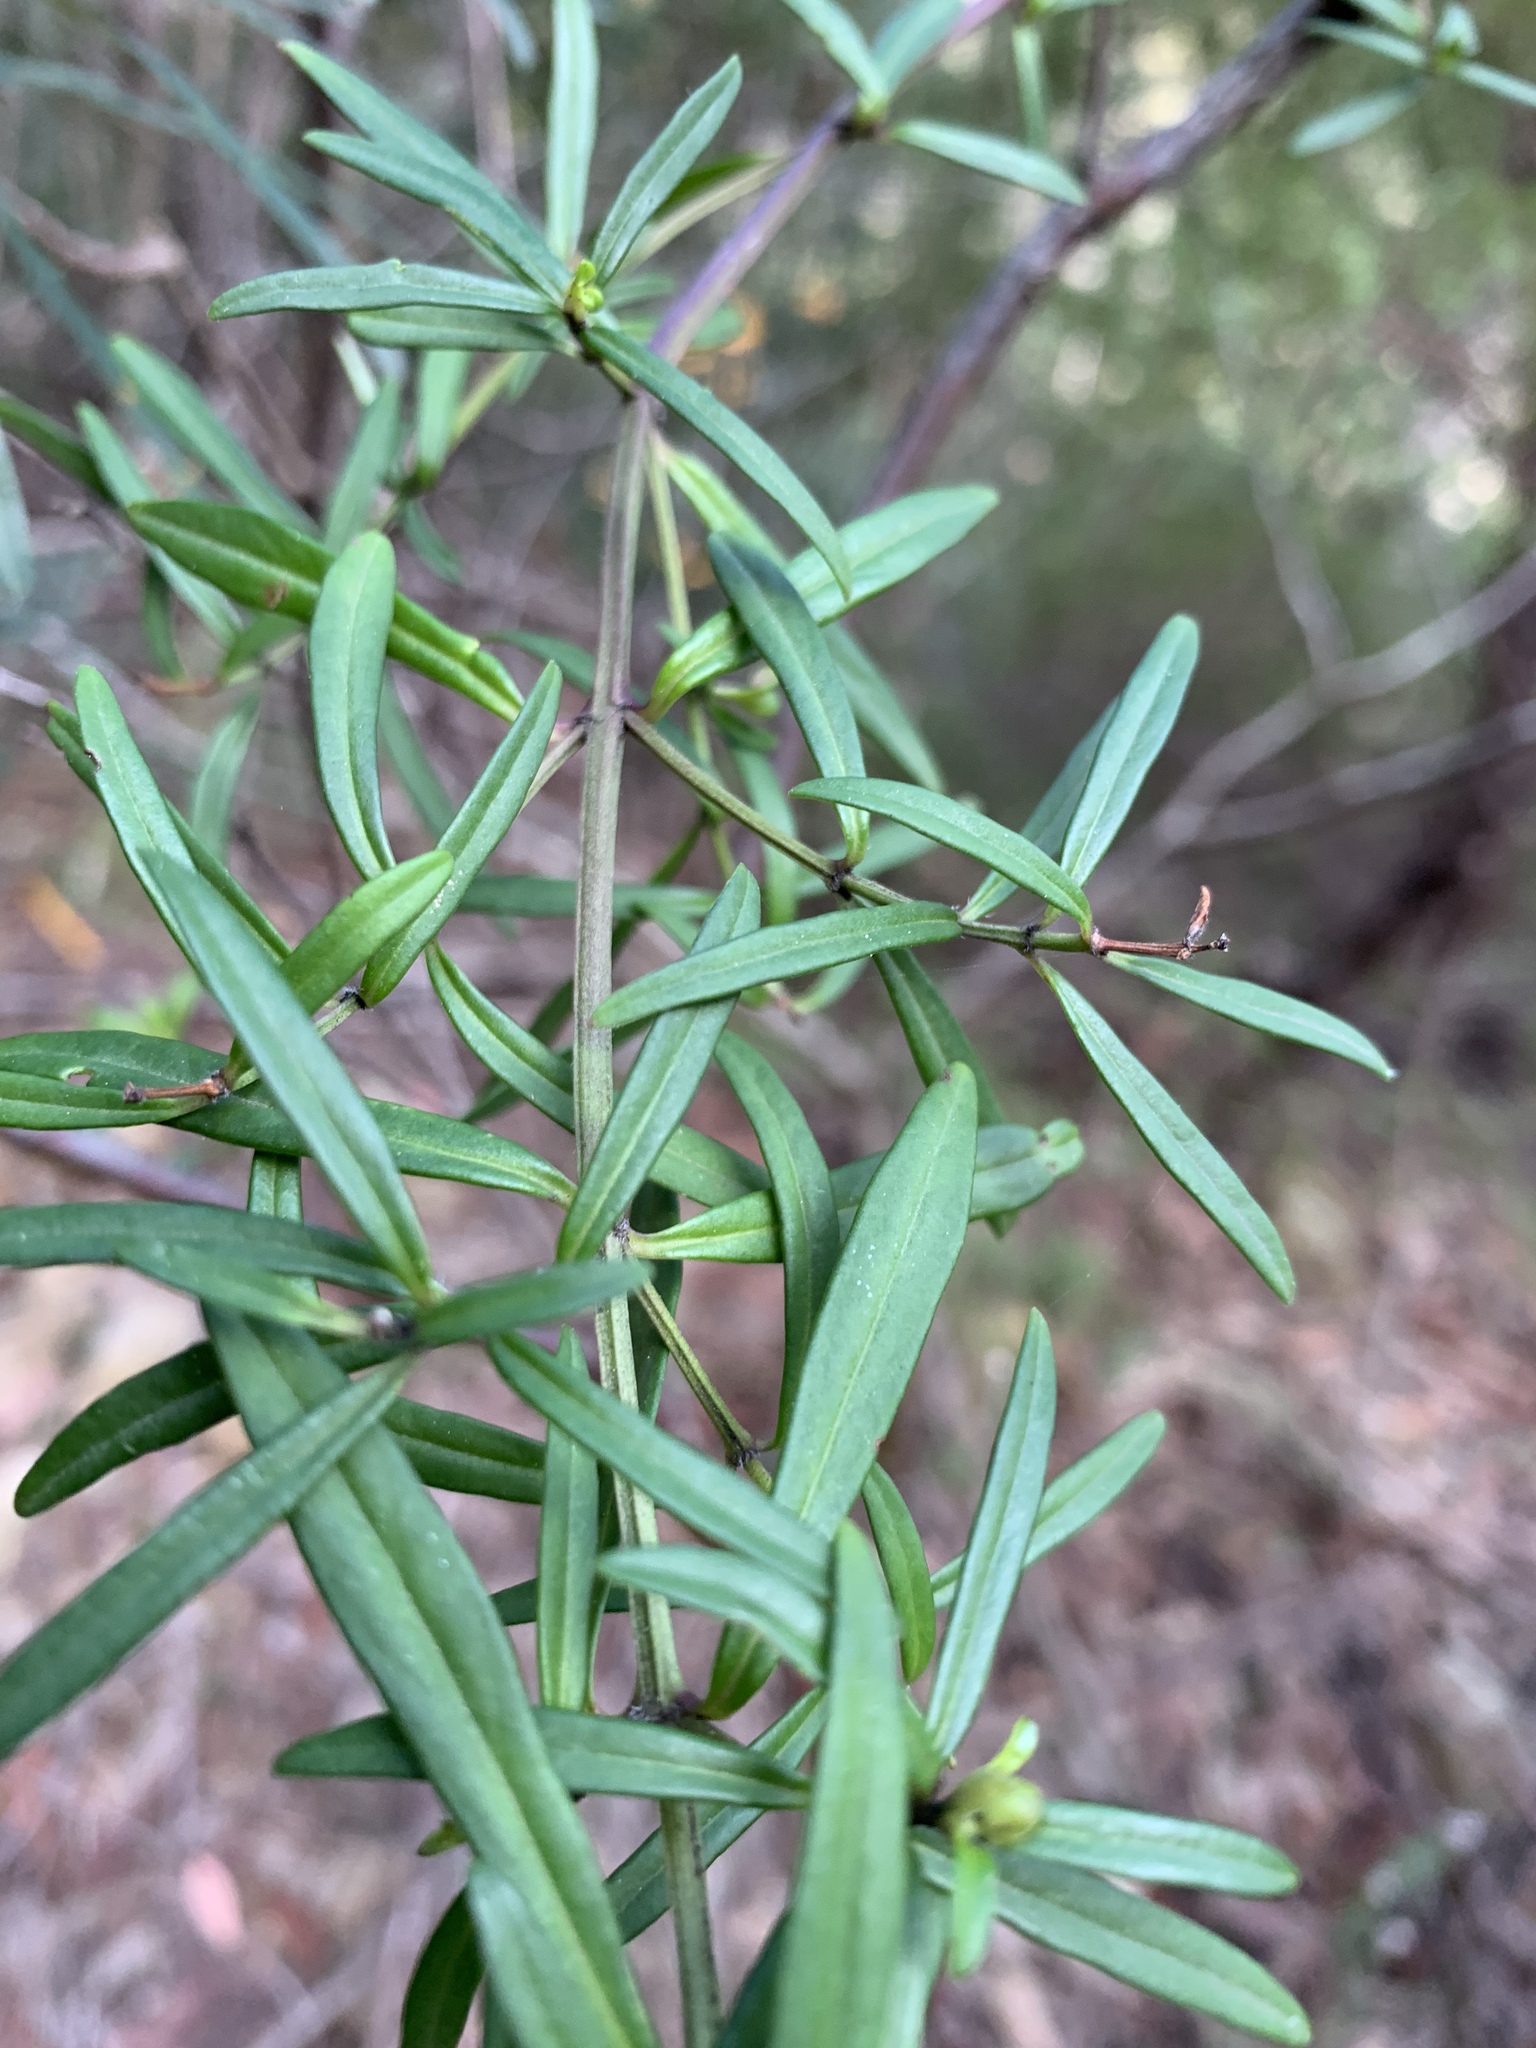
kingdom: Plantae
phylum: Tracheophyta
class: Magnoliopsida
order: Lamiales
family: Lamiaceae
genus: Prostanthera
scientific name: Prostanthera linearis
